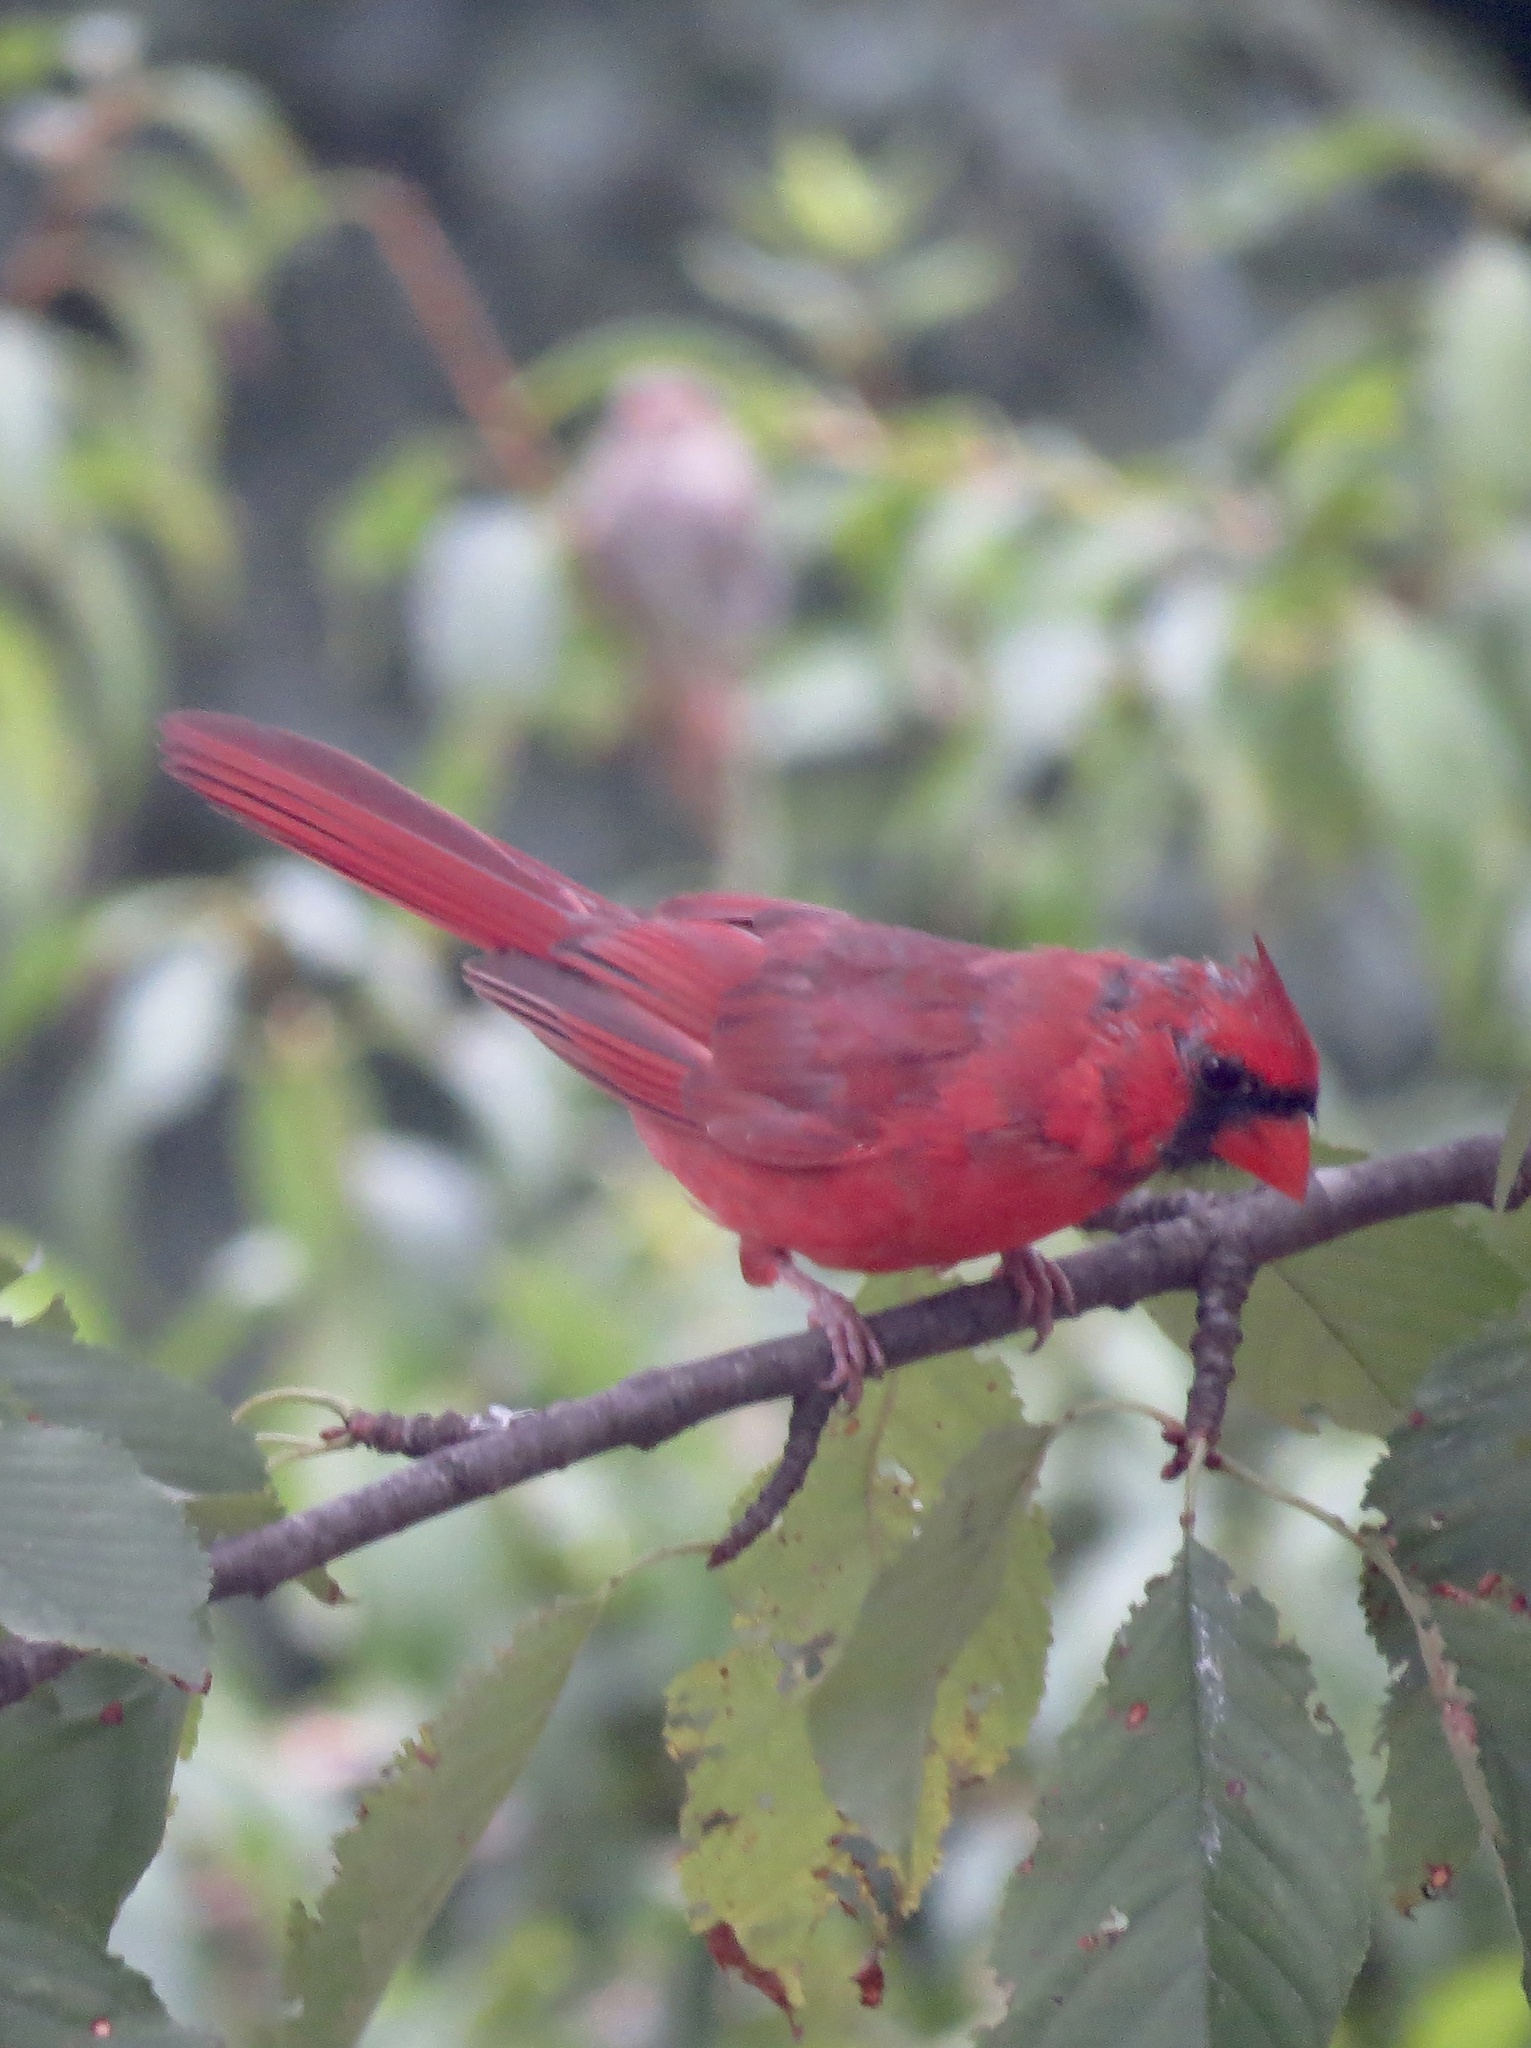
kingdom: Animalia
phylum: Chordata
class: Aves
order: Passeriformes
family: Cardinalidae
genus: Cardinalis
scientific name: Cardinalis cardinalis
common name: Northern cardinal
